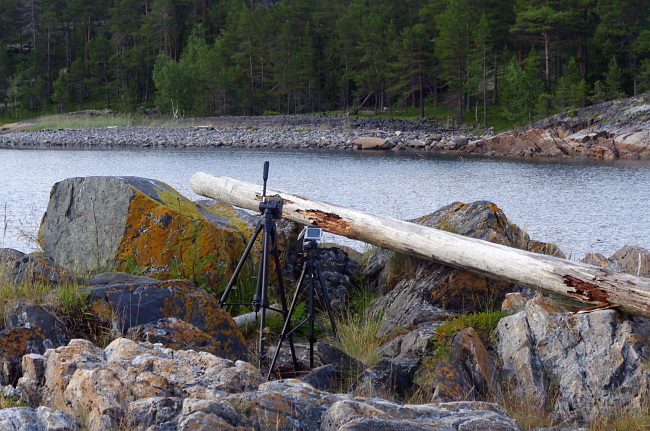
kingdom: Animalia
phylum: Chordata
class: Aves
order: Anseriformes
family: Anatidae
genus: Somateria
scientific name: Somateria mollissima
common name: Common eider
